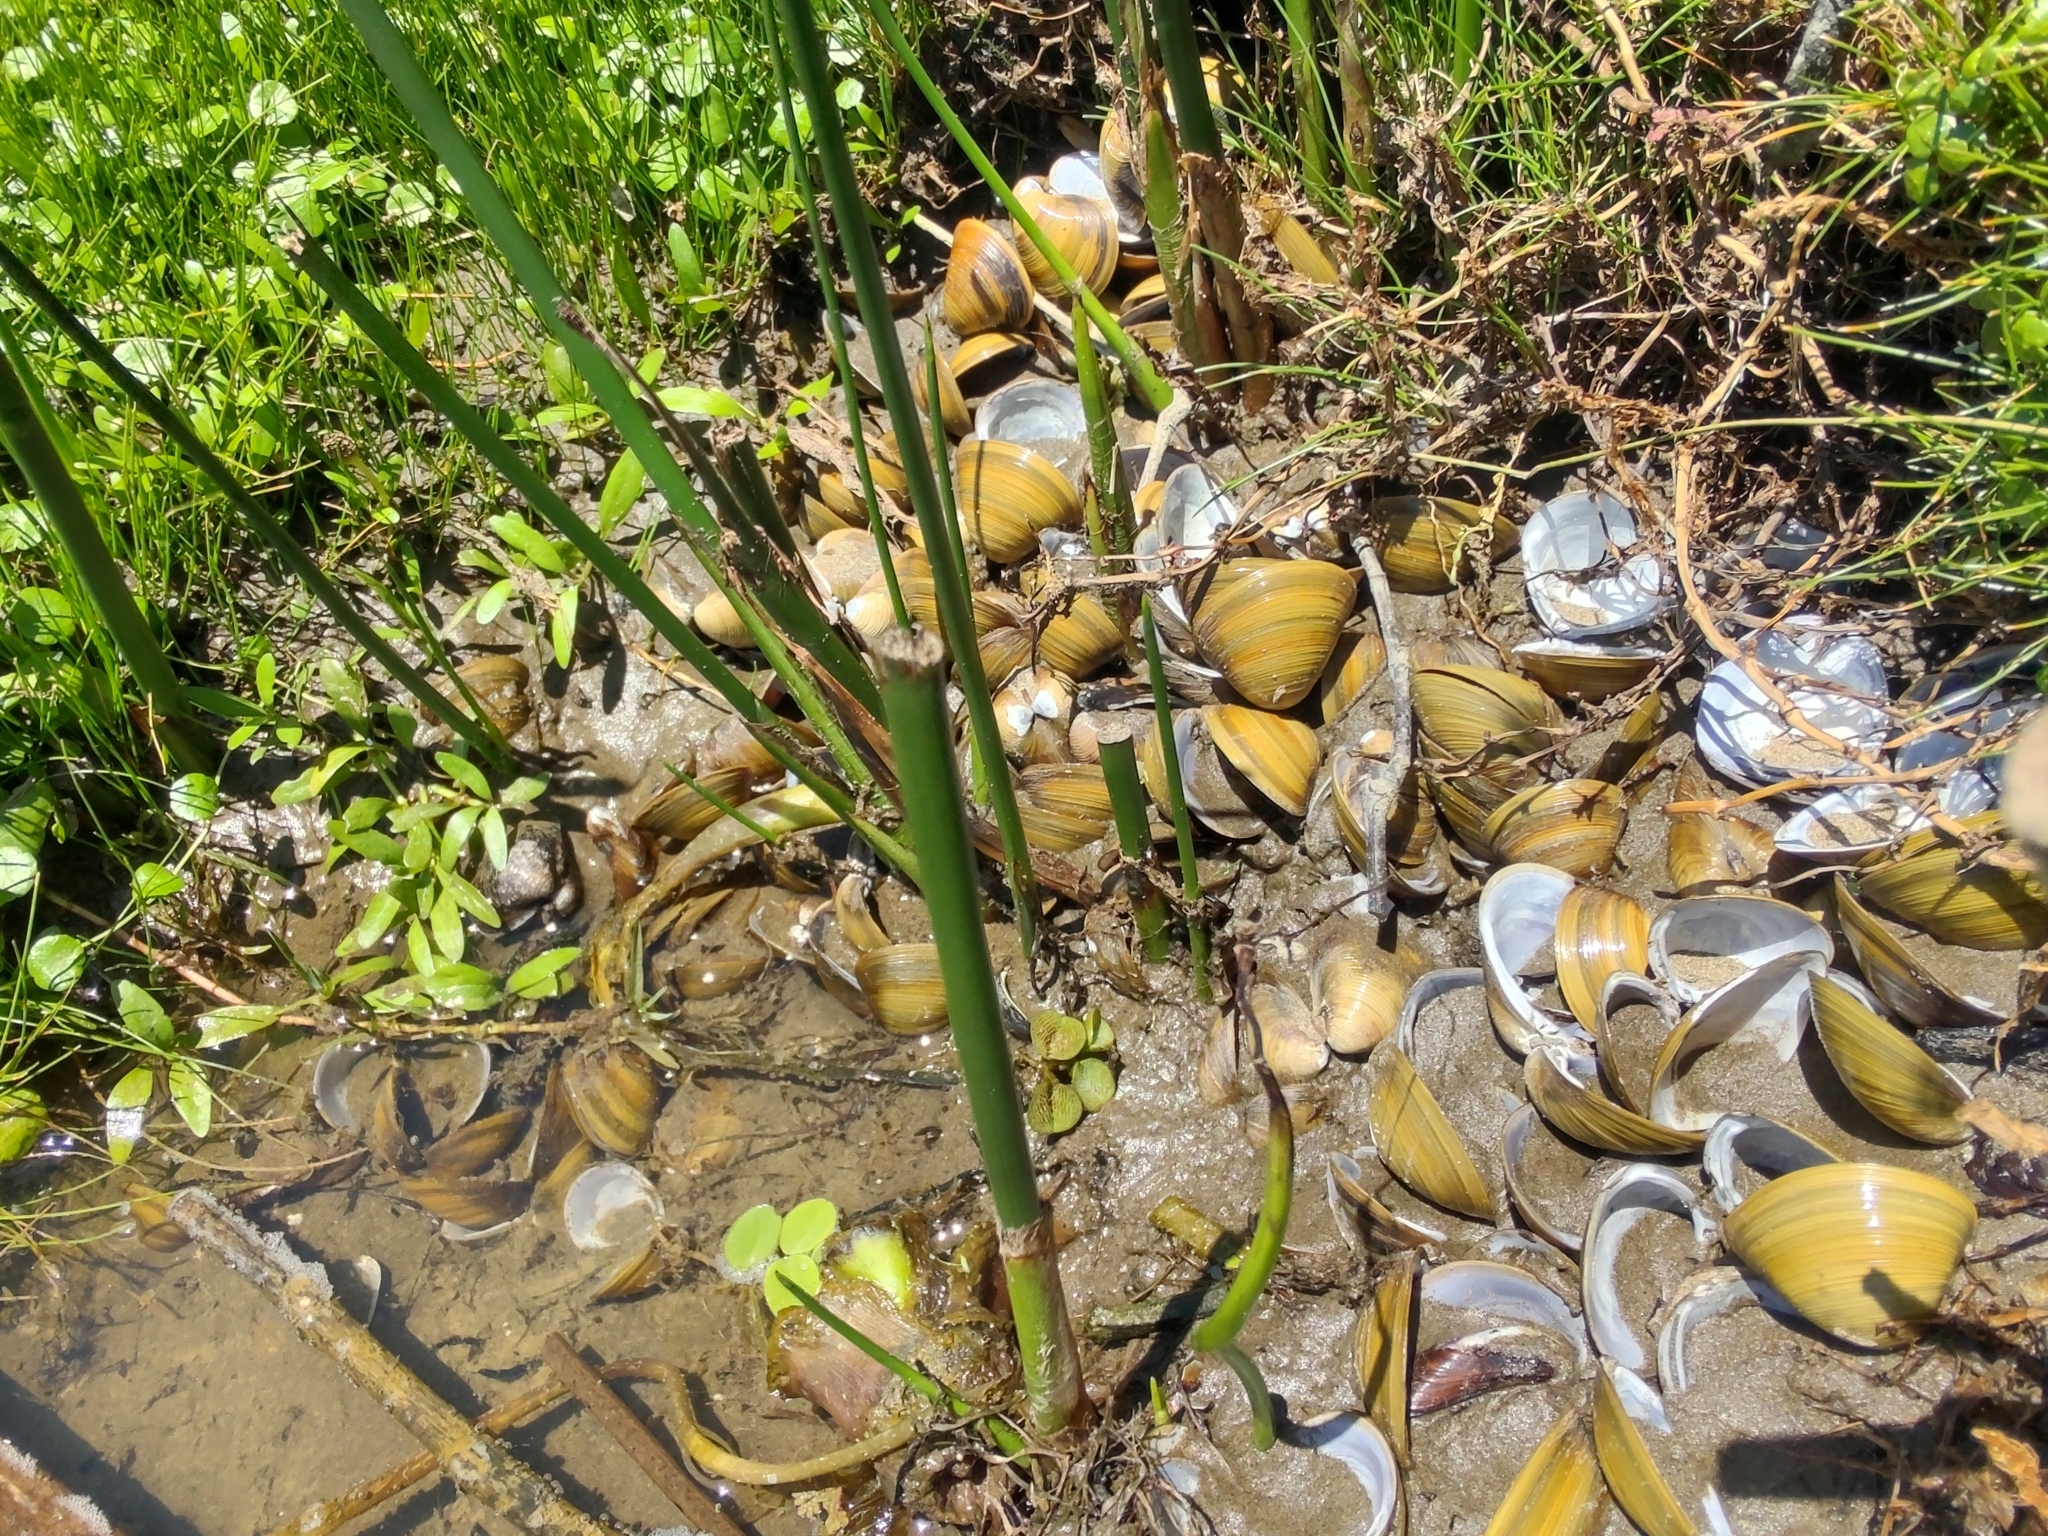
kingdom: Animalia
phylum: Mollusca
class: Bivalvia
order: Venerida
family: Cyrenidae
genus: Corbicula
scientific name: Corbicula fluminea
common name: Asian clam
